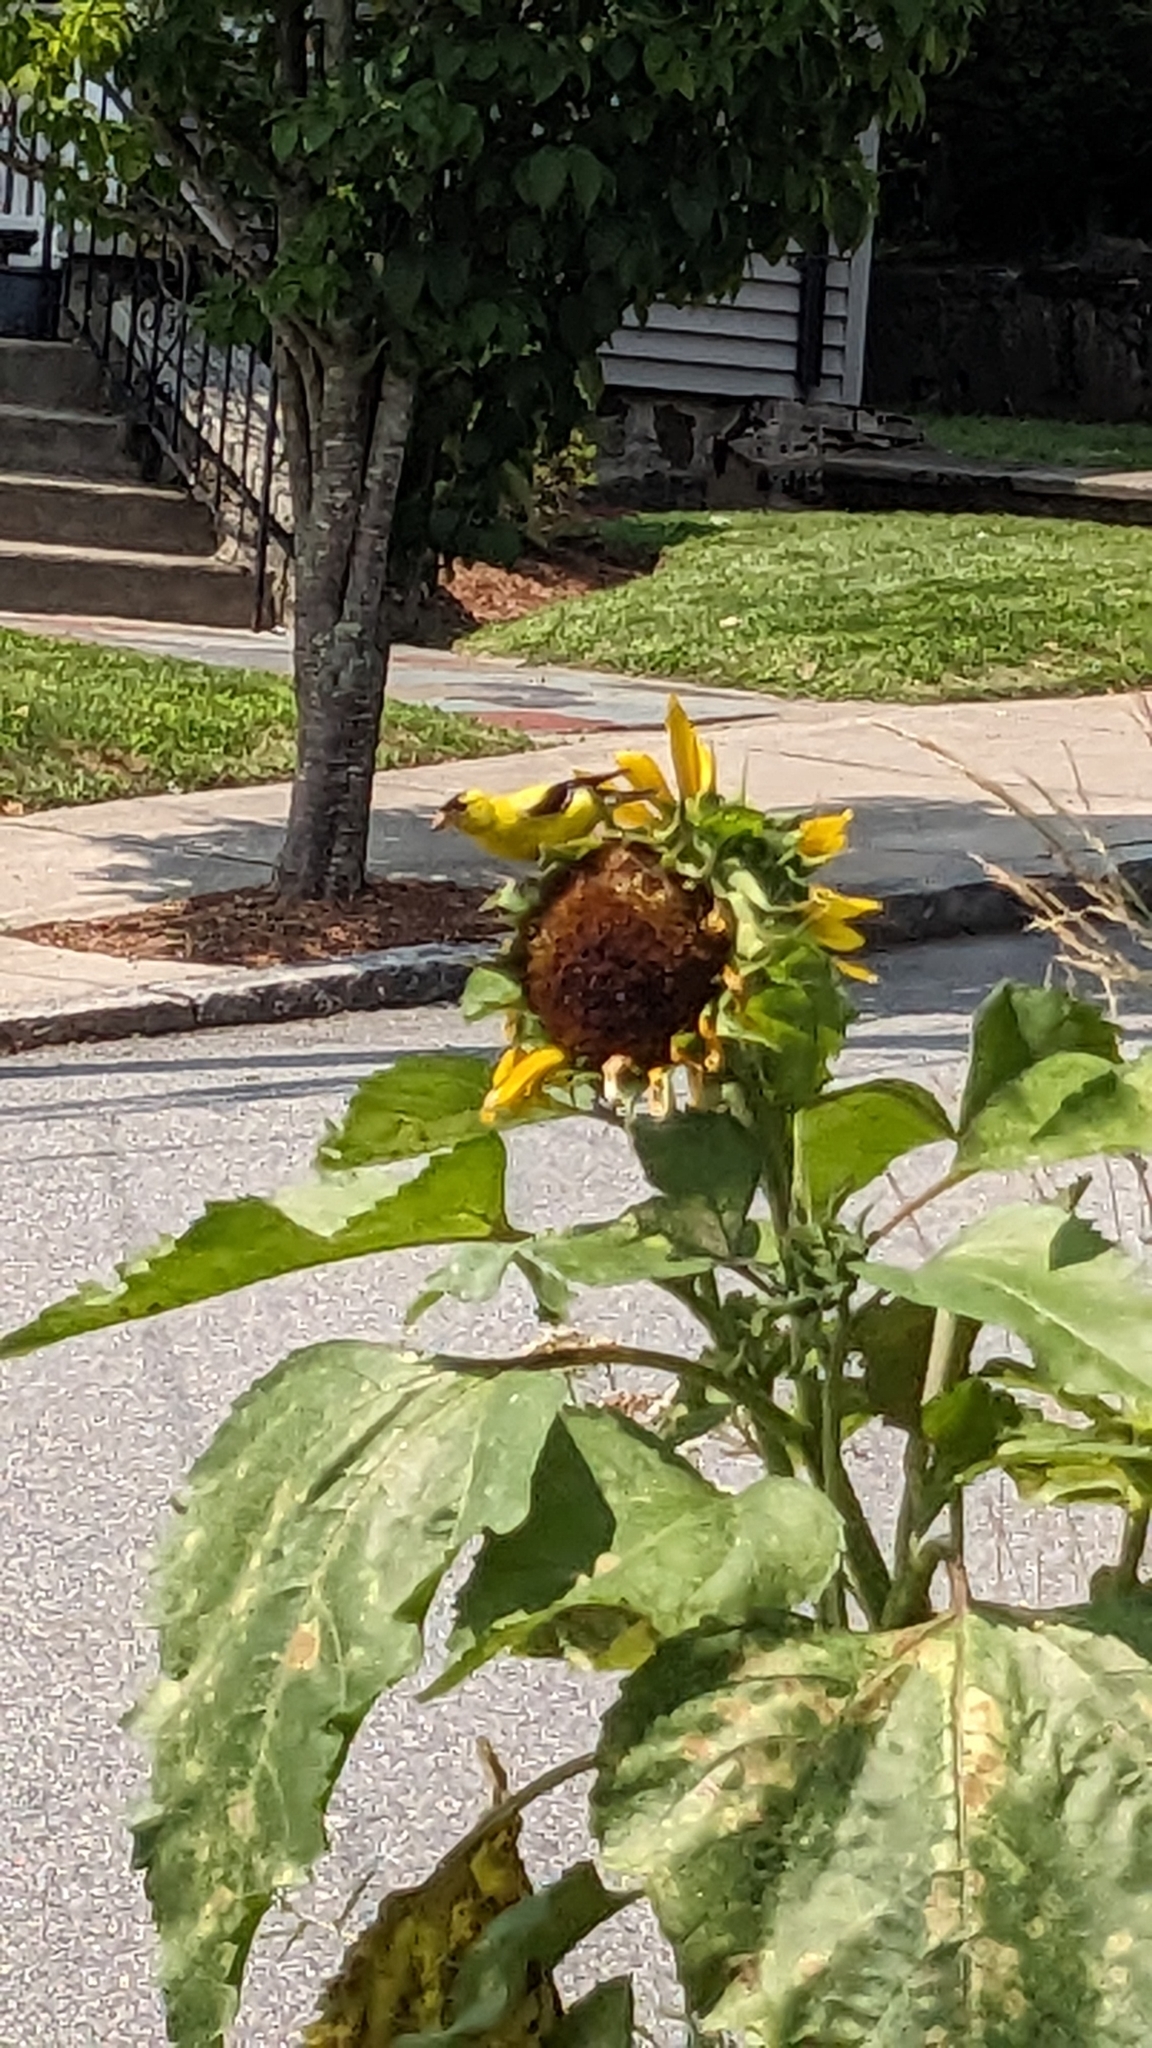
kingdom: Animalia
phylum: Chordata
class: Aves
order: Passeriformes
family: Fringillidae
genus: Spinus
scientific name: Spinus tristis
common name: American goldfinch
